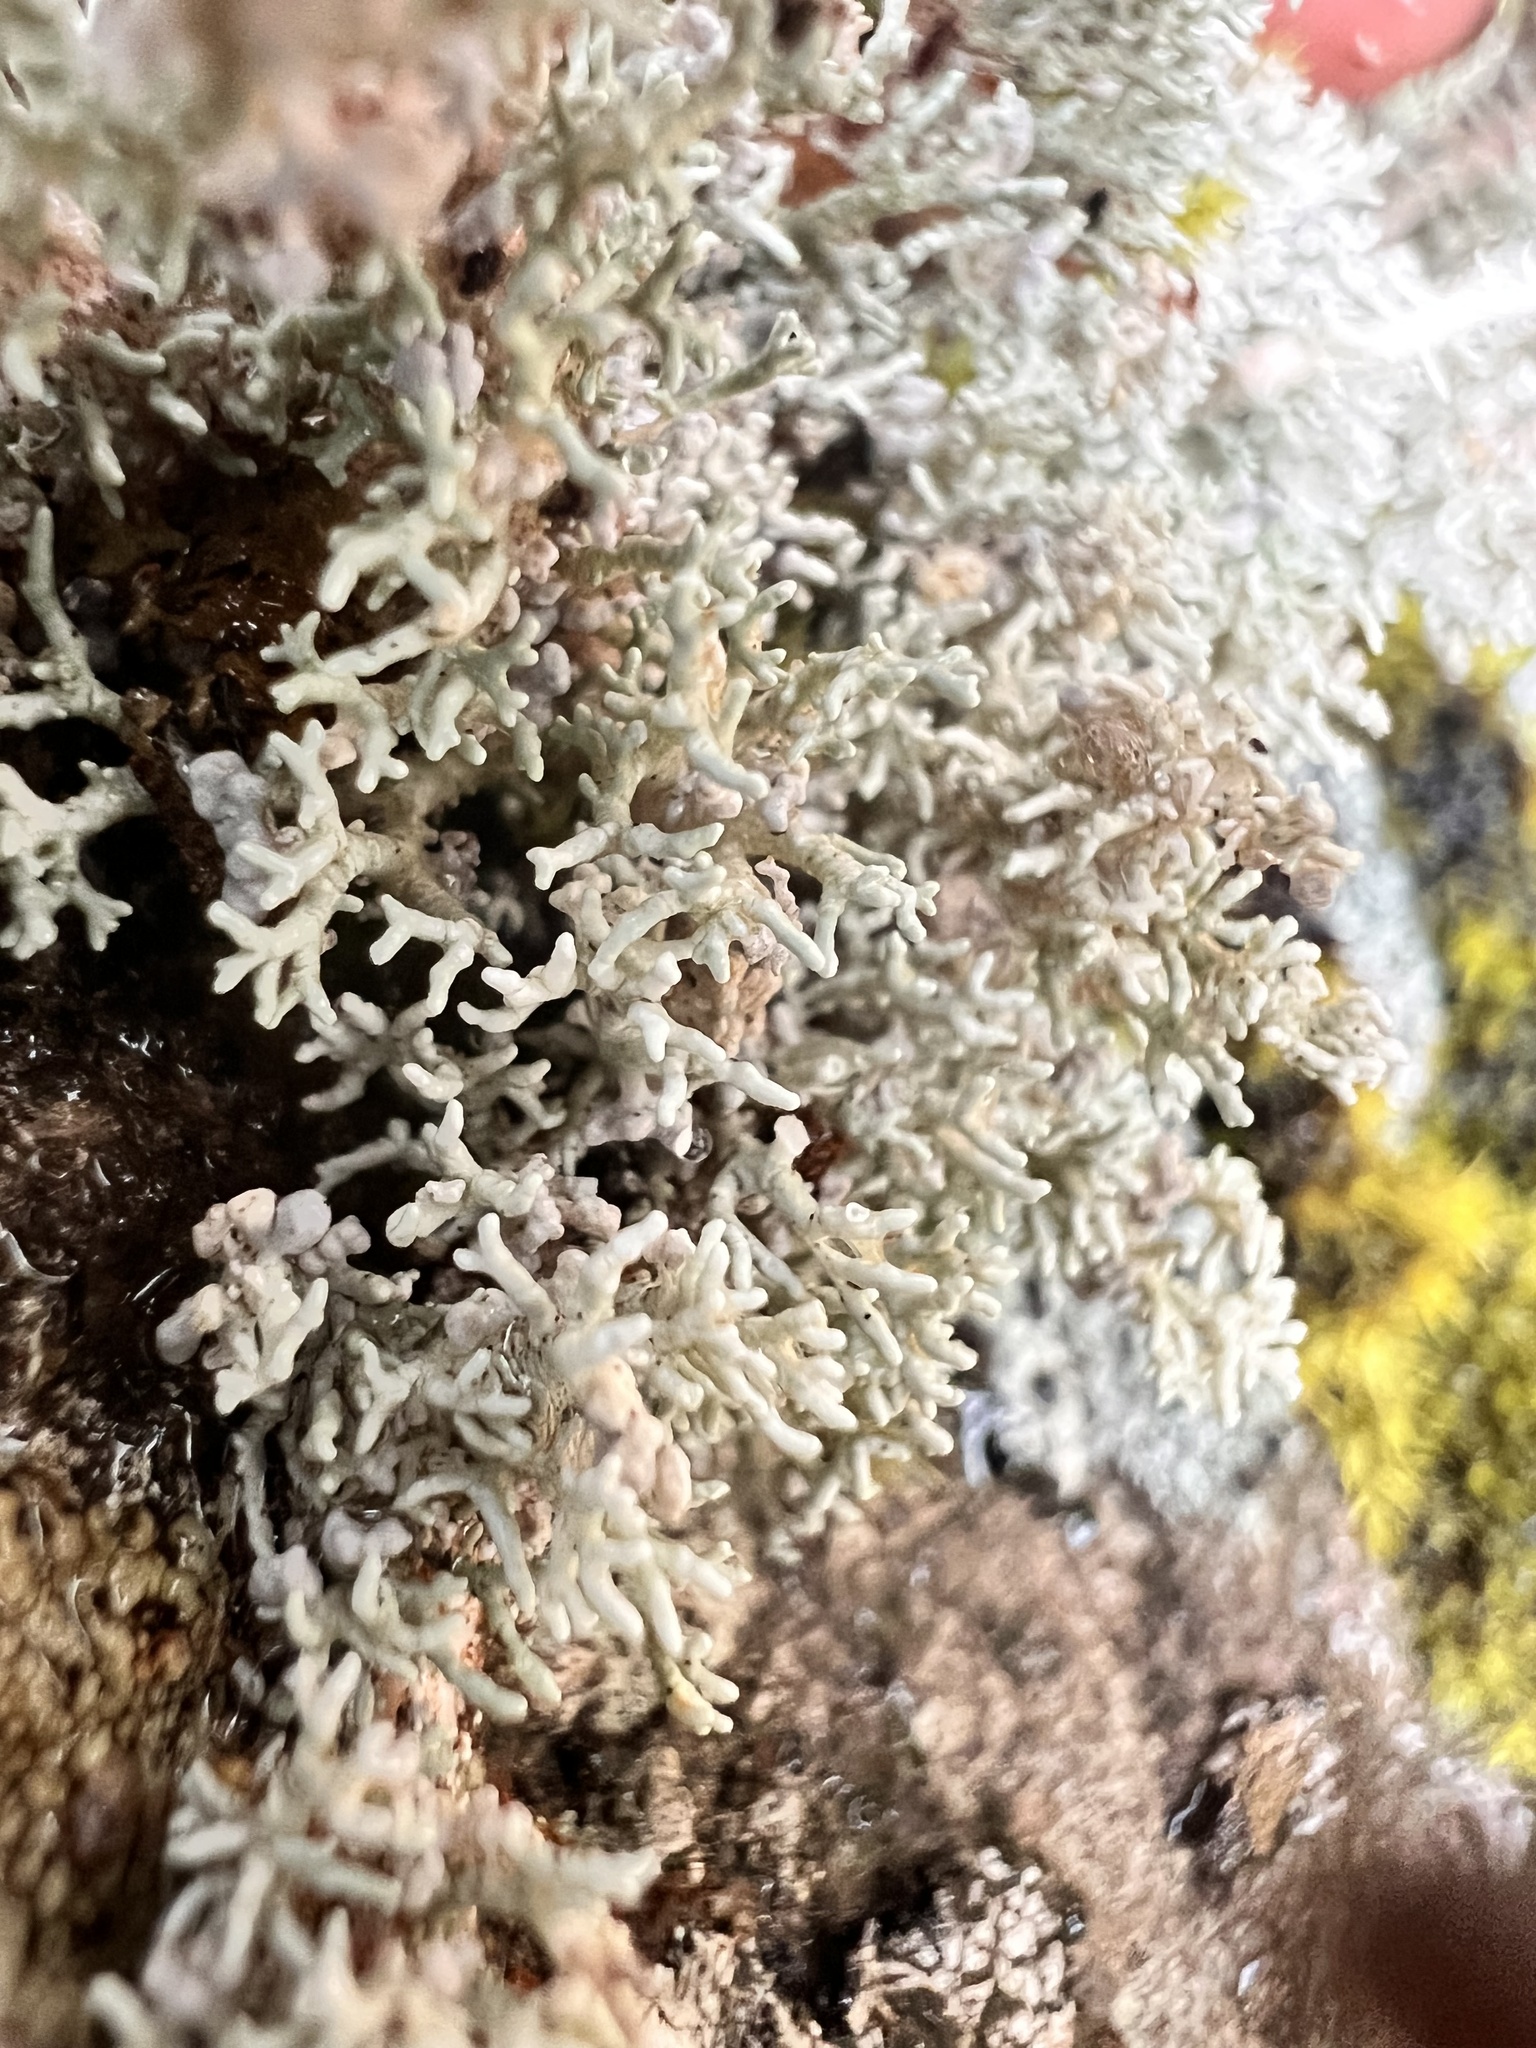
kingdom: Fungi
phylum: Ascomycota
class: Lecanoromycetes
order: Lecanorales
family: Stereocaulaceae
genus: Stereocaulon
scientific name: Stereocaulon ramulosum
